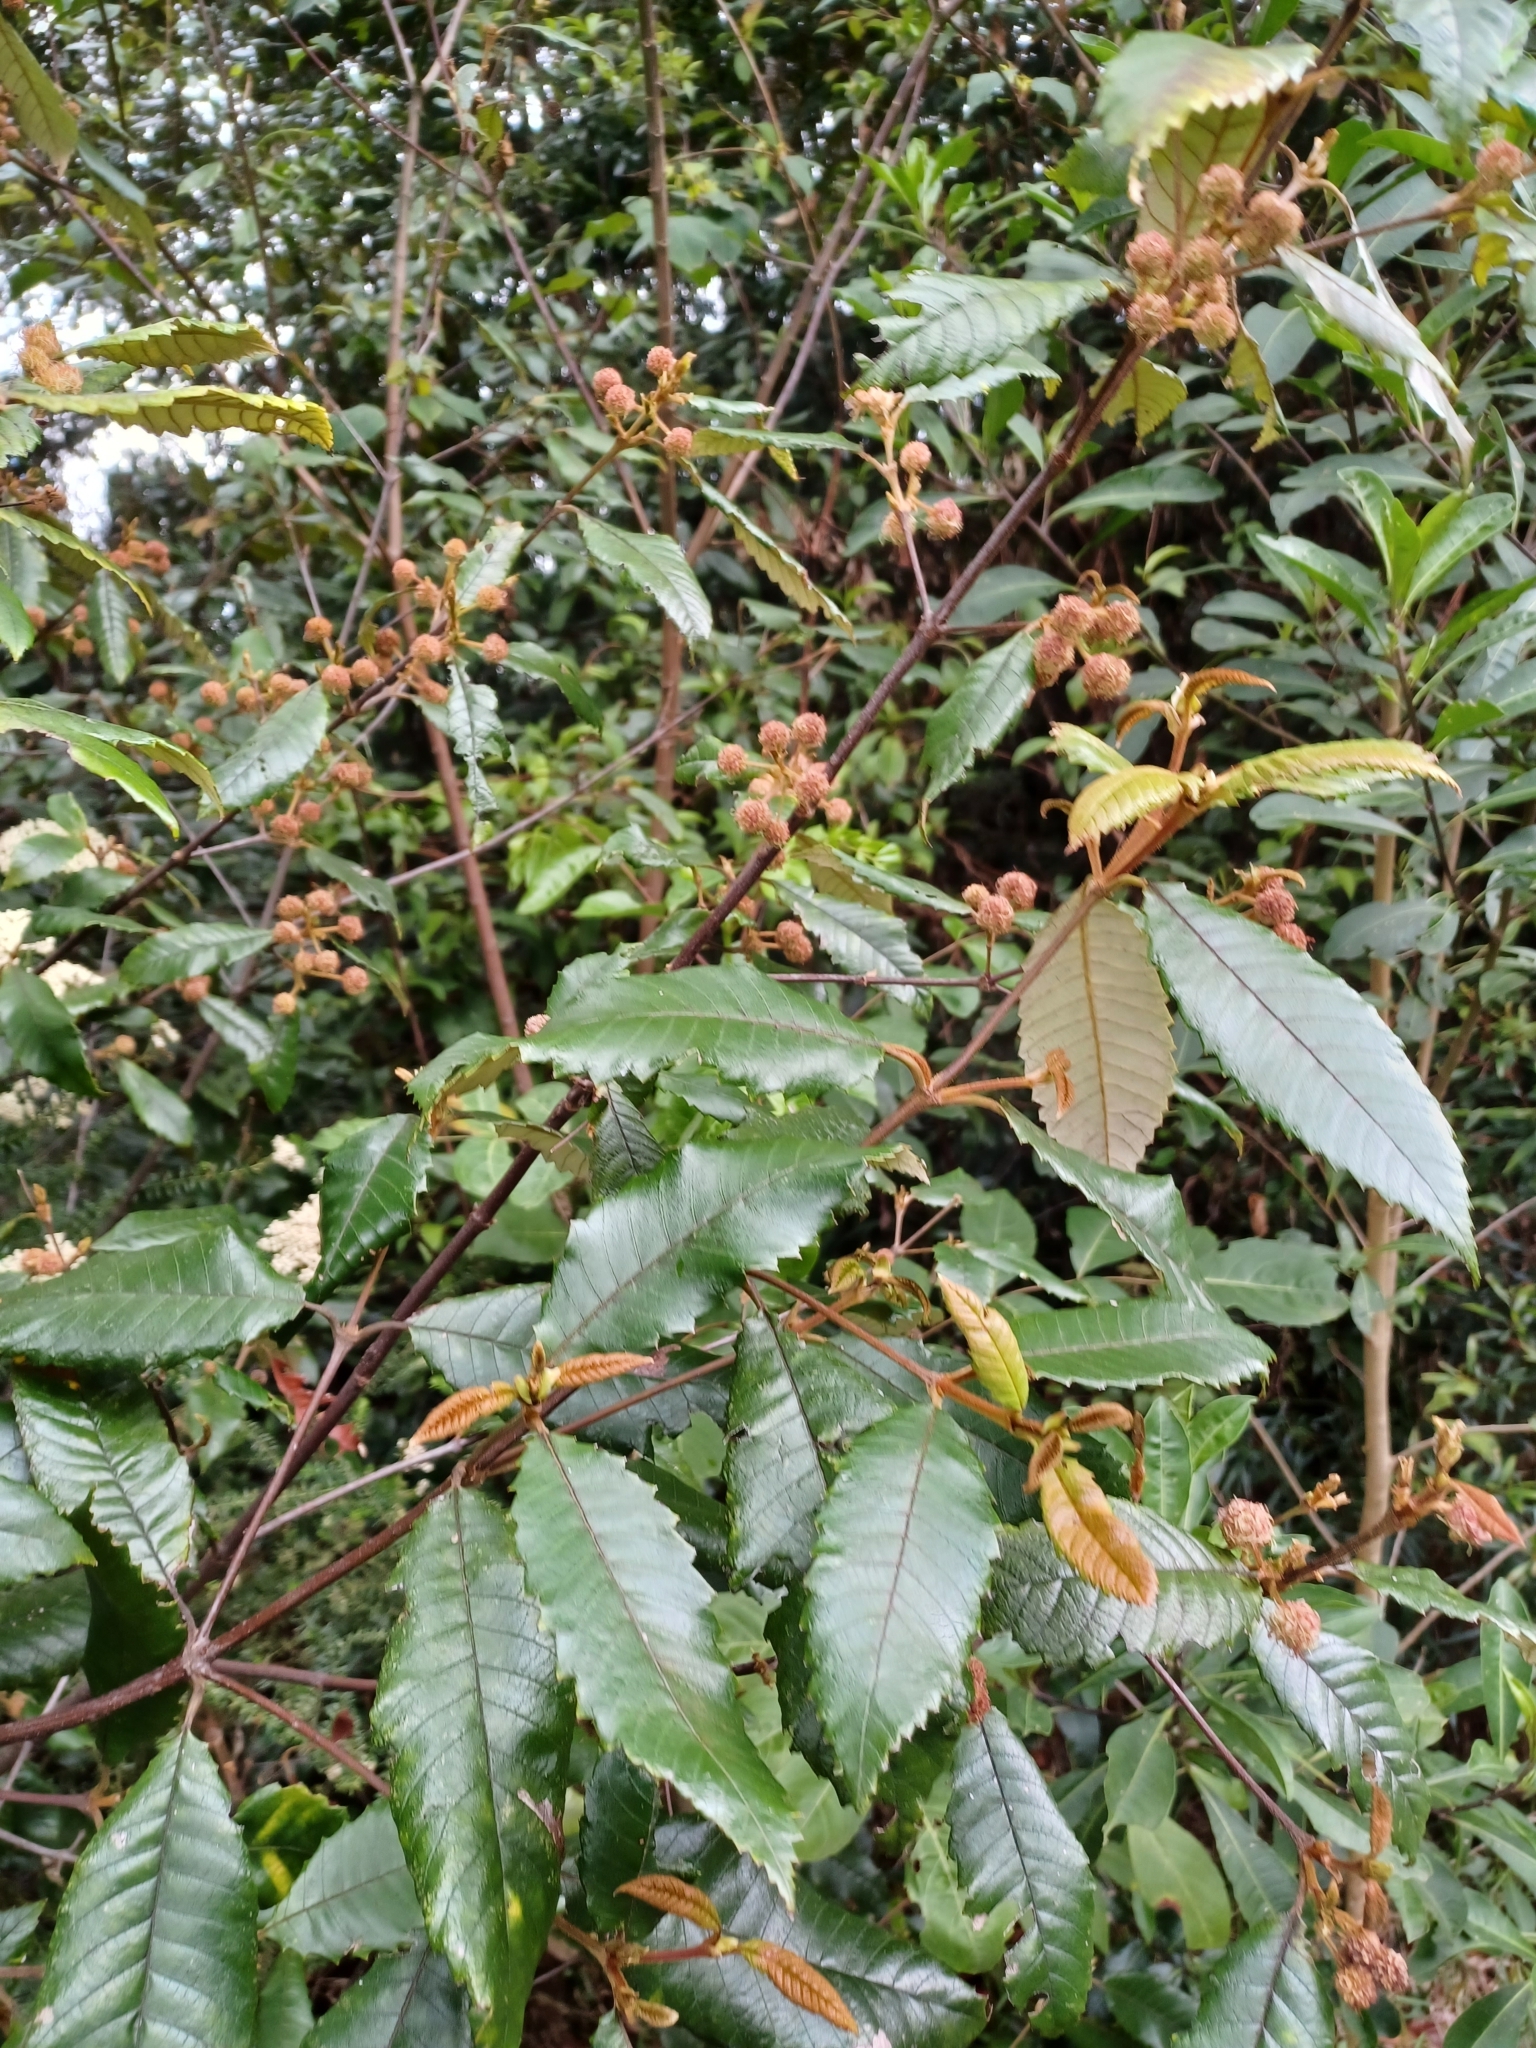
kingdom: Plantae
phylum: Tracheophyta
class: Magnoliopsida
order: Oxalidales
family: Cunoniaceae
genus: Callicoma
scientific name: Callicoma serratifolia
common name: Black wattle
